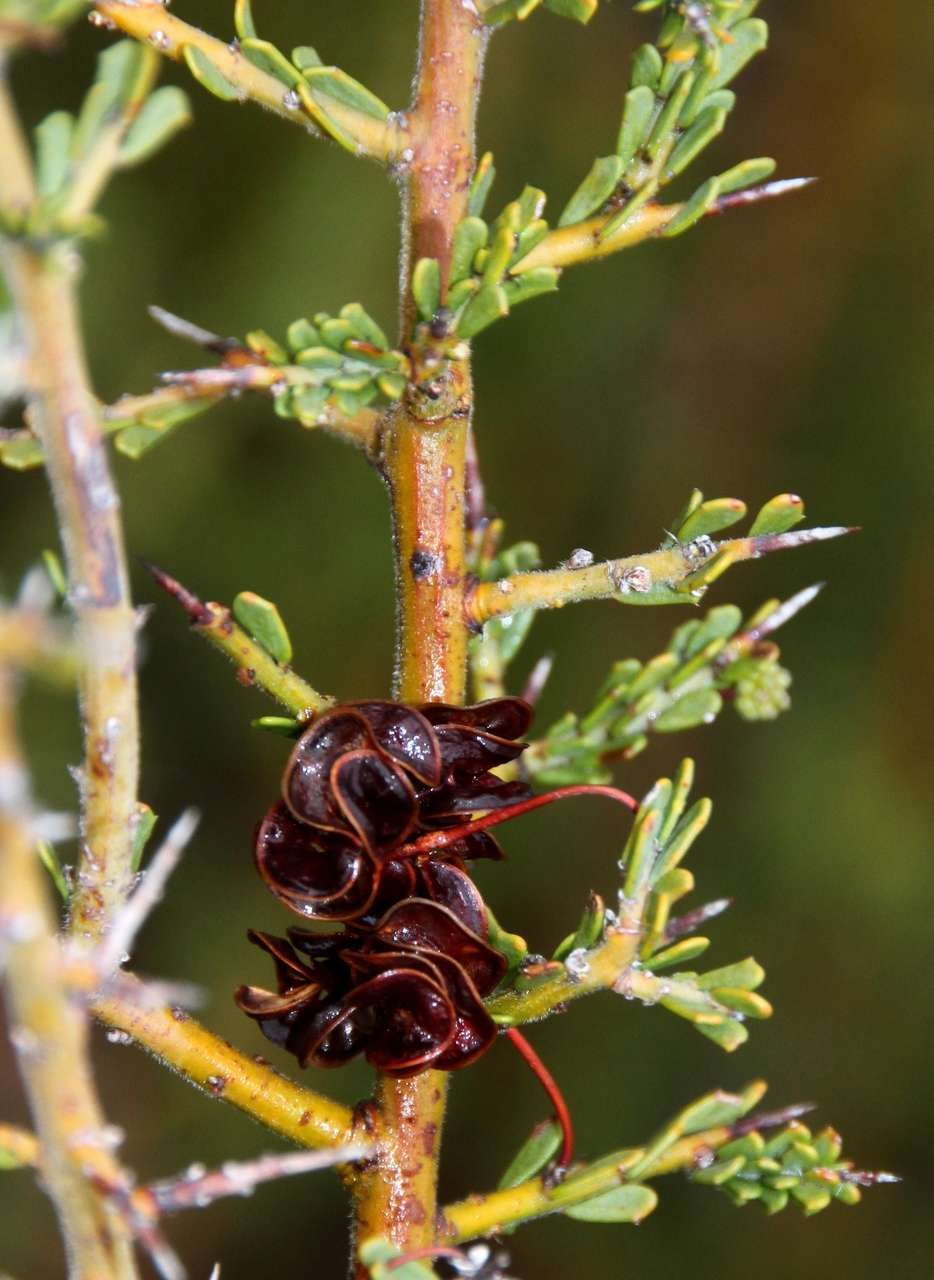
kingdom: Plantae
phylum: Tracheophyta
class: Magnoliopsida
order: Fabales
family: Fabaceae
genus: Acacia
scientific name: Acacia acanthoclada
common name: Harrow wattle
